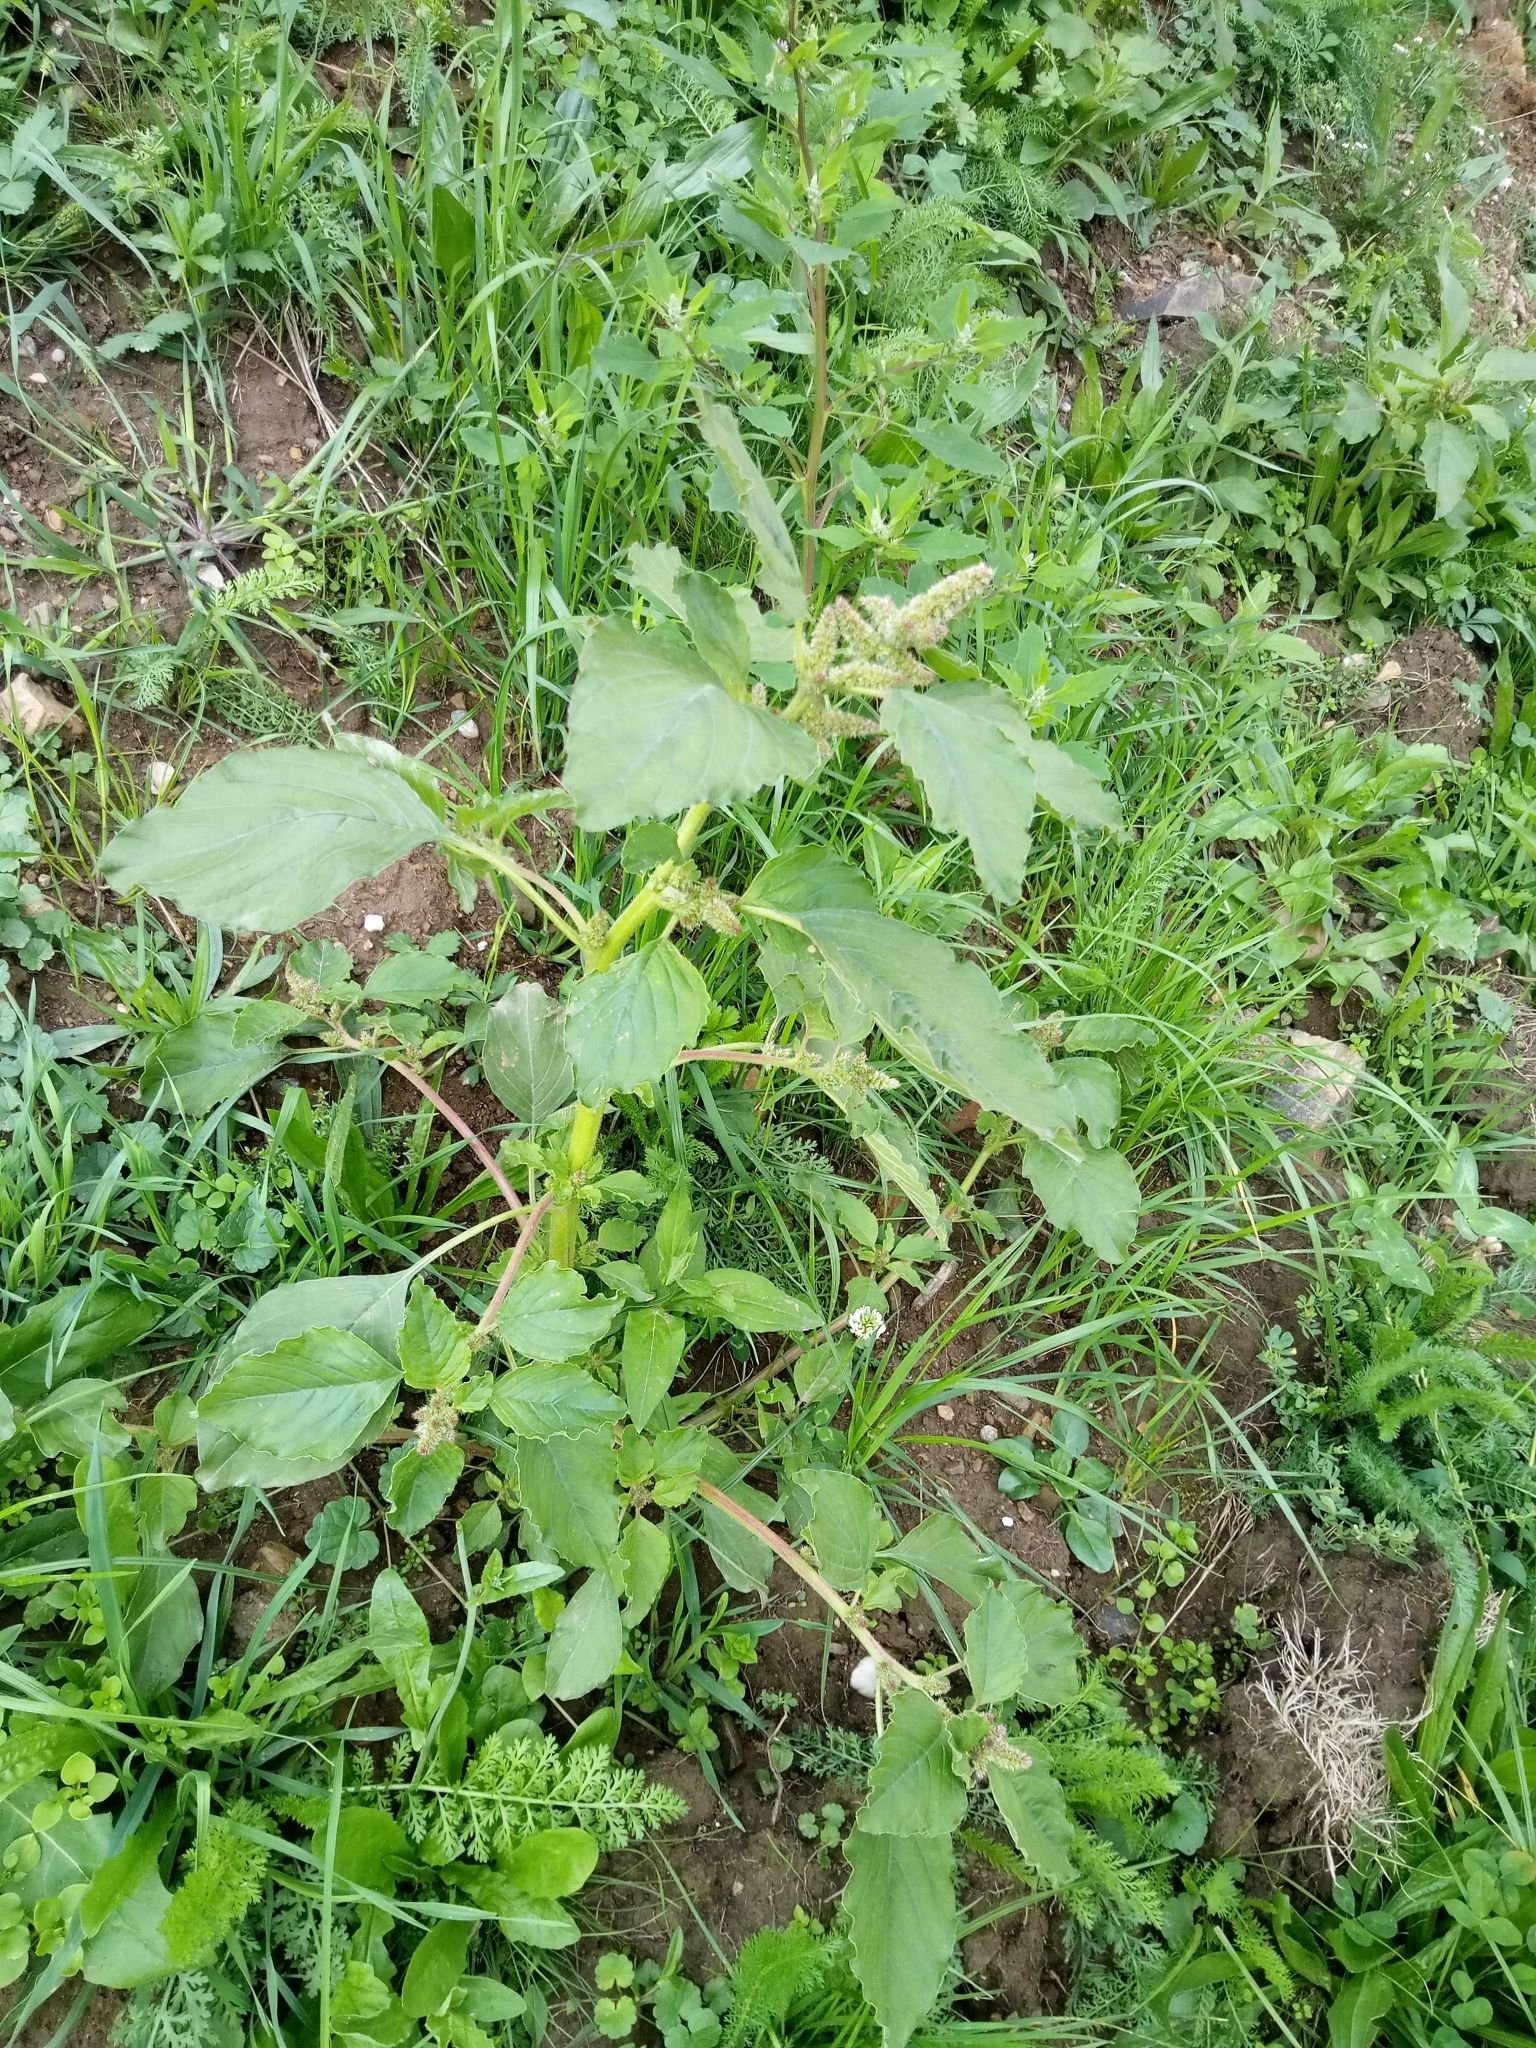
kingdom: Plantae
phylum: Tracheophyta
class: Magnoliopsida
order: Caryophyllales
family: Amaranthaceae
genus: Amaranthus
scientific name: Amaranthus retroflexus
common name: Redroot amaranth
